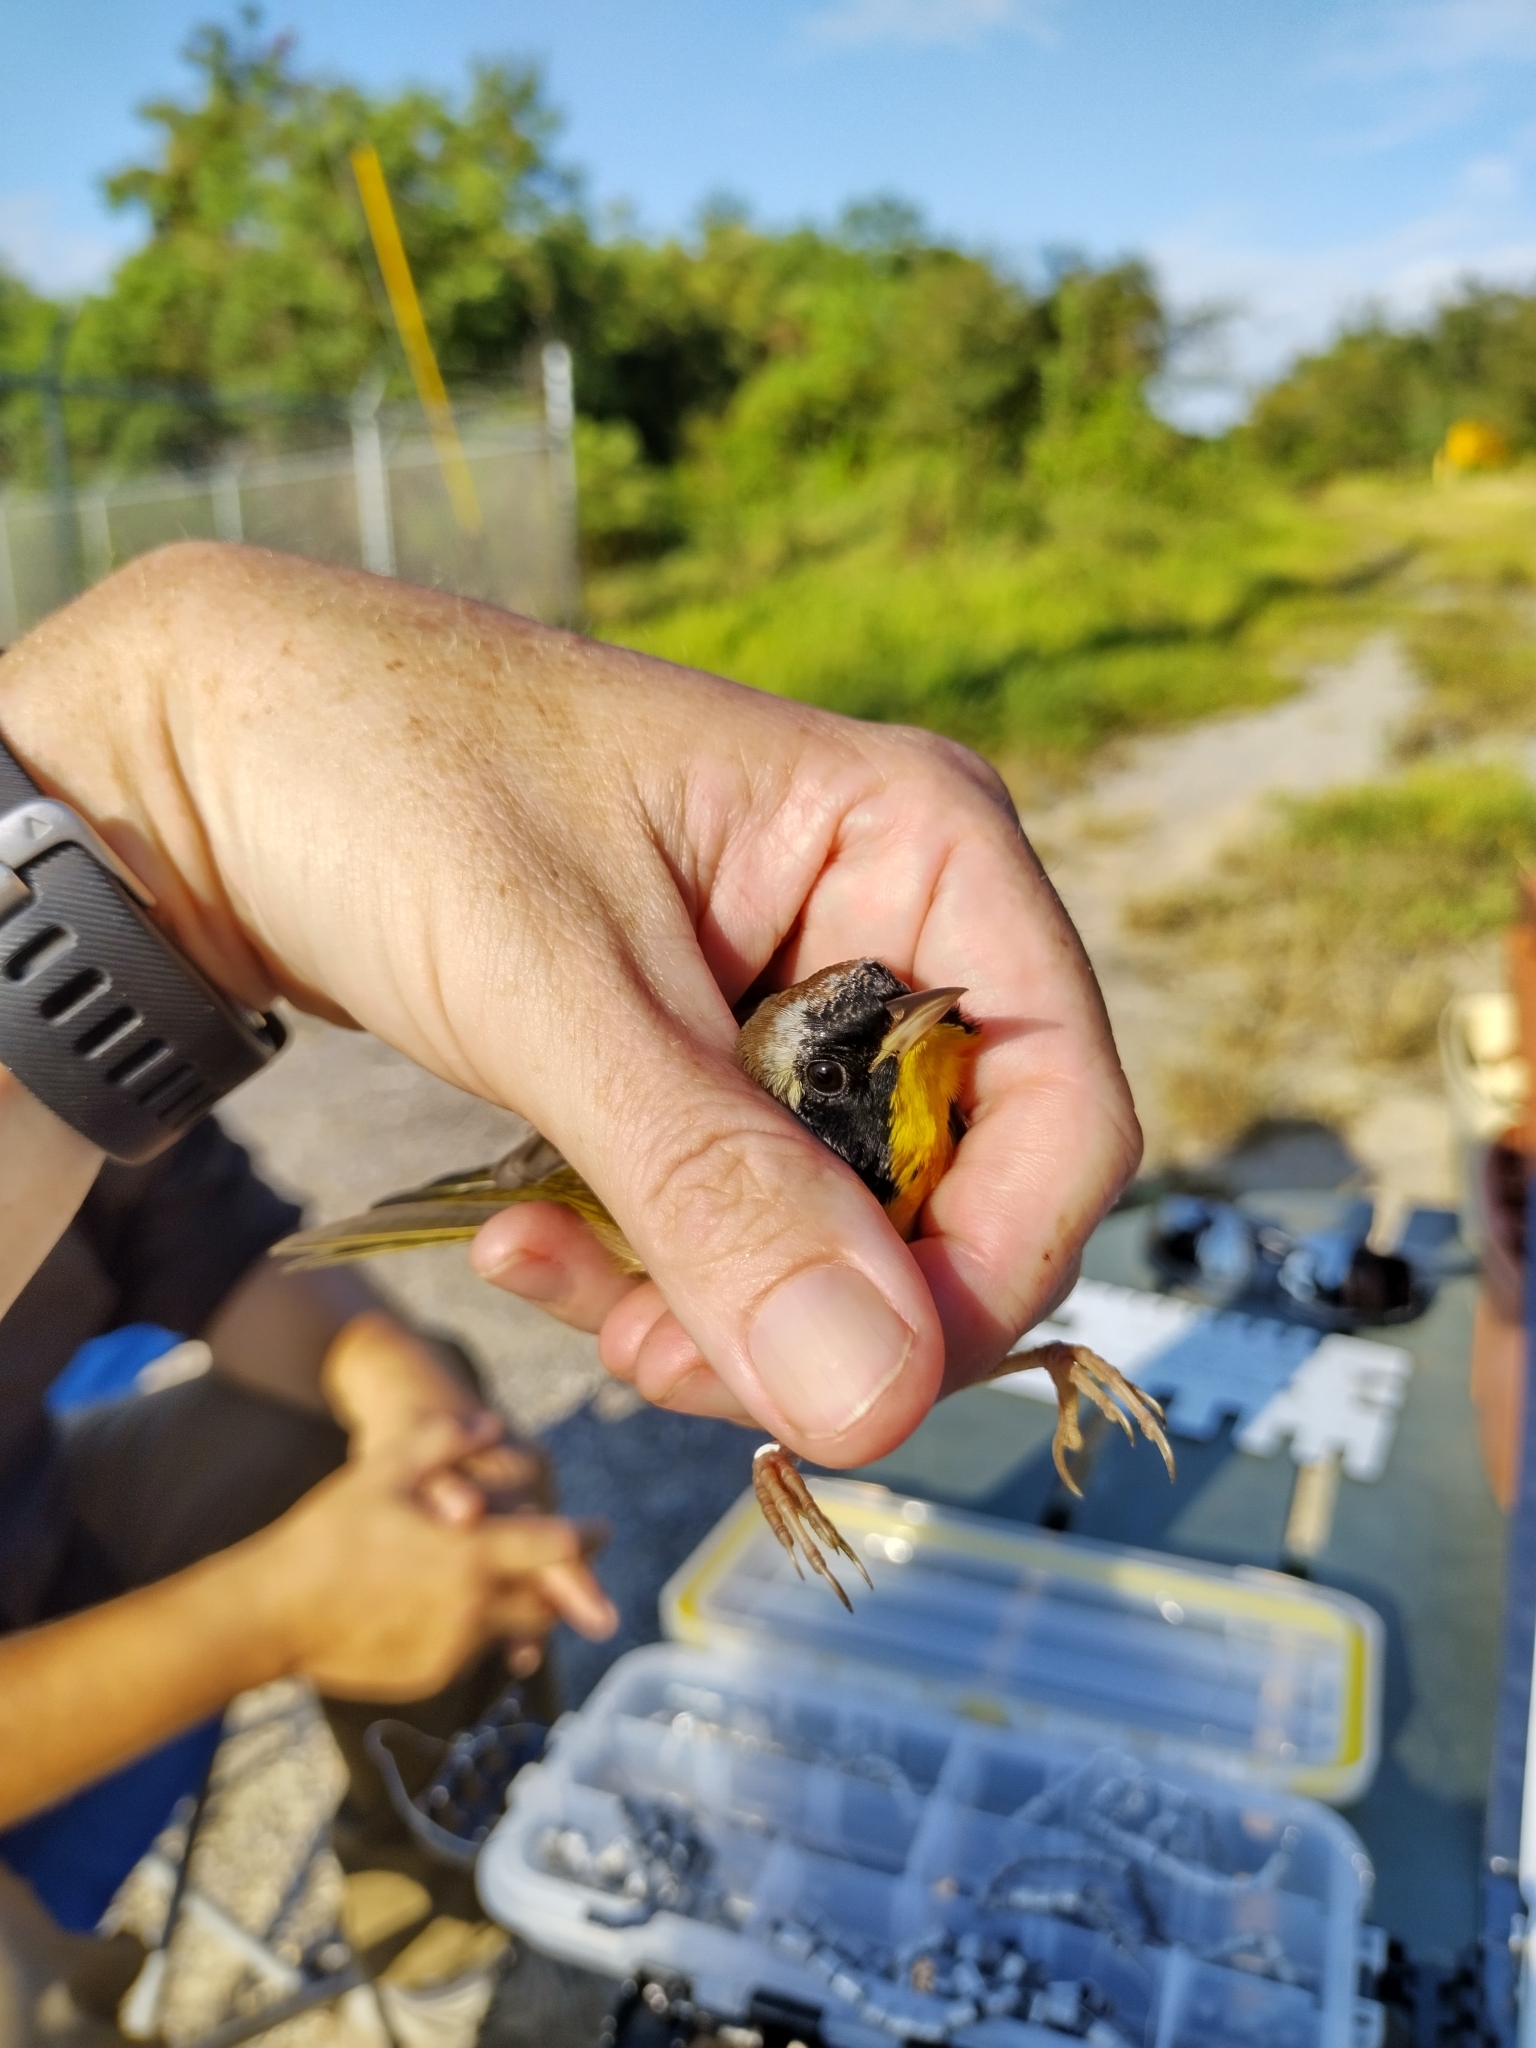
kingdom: Animalia
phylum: Chordata
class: Aves
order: Passeriformes
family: Parulidae
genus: Geothlypis
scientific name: Geothlypis trichas
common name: Common yellowthroat
